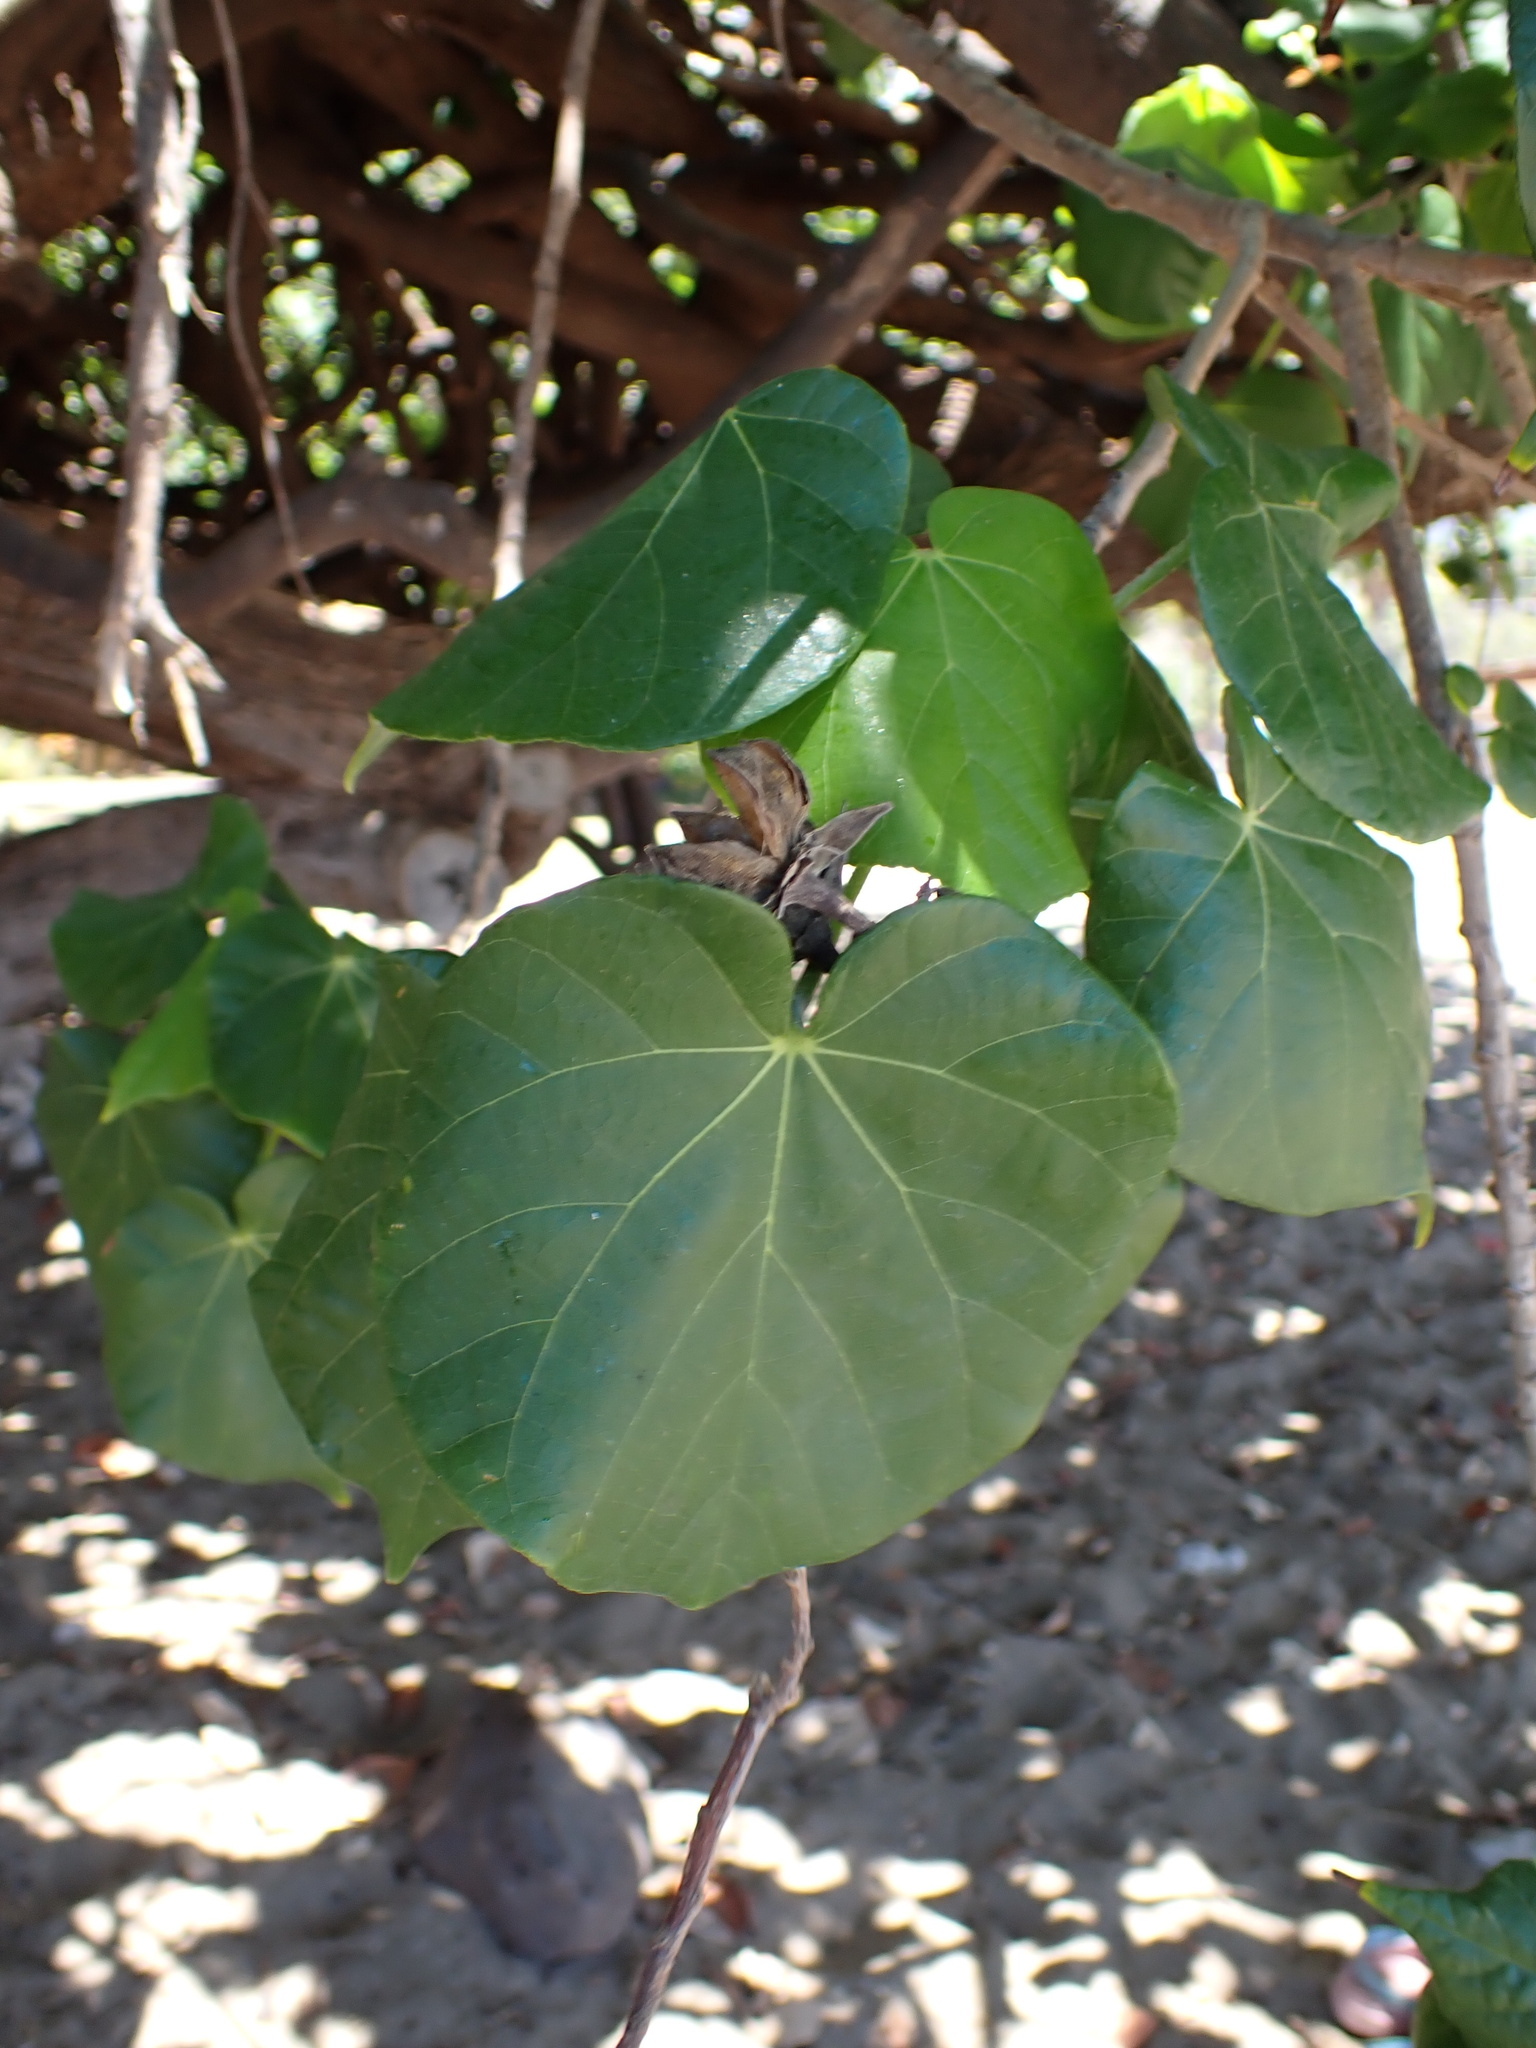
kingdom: Plantae
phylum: Tracheophyta
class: Magnoliopsida
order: Malvales
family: Malvaceae
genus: Talipariti
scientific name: Talipariti tiliaceum
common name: Sea hibiscus
